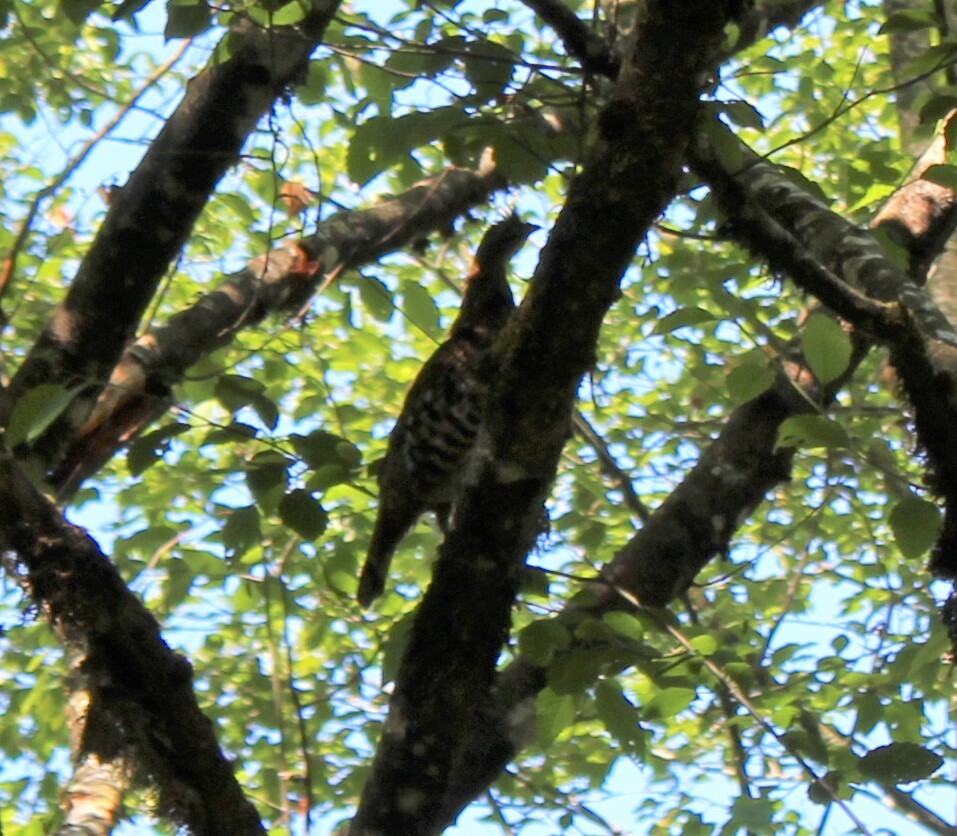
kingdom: Animalia
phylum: Chordata
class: Aves
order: Galliformes
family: Phasianidae
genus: Bonasa
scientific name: Bonasa umbellus
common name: Ruffed grouse
